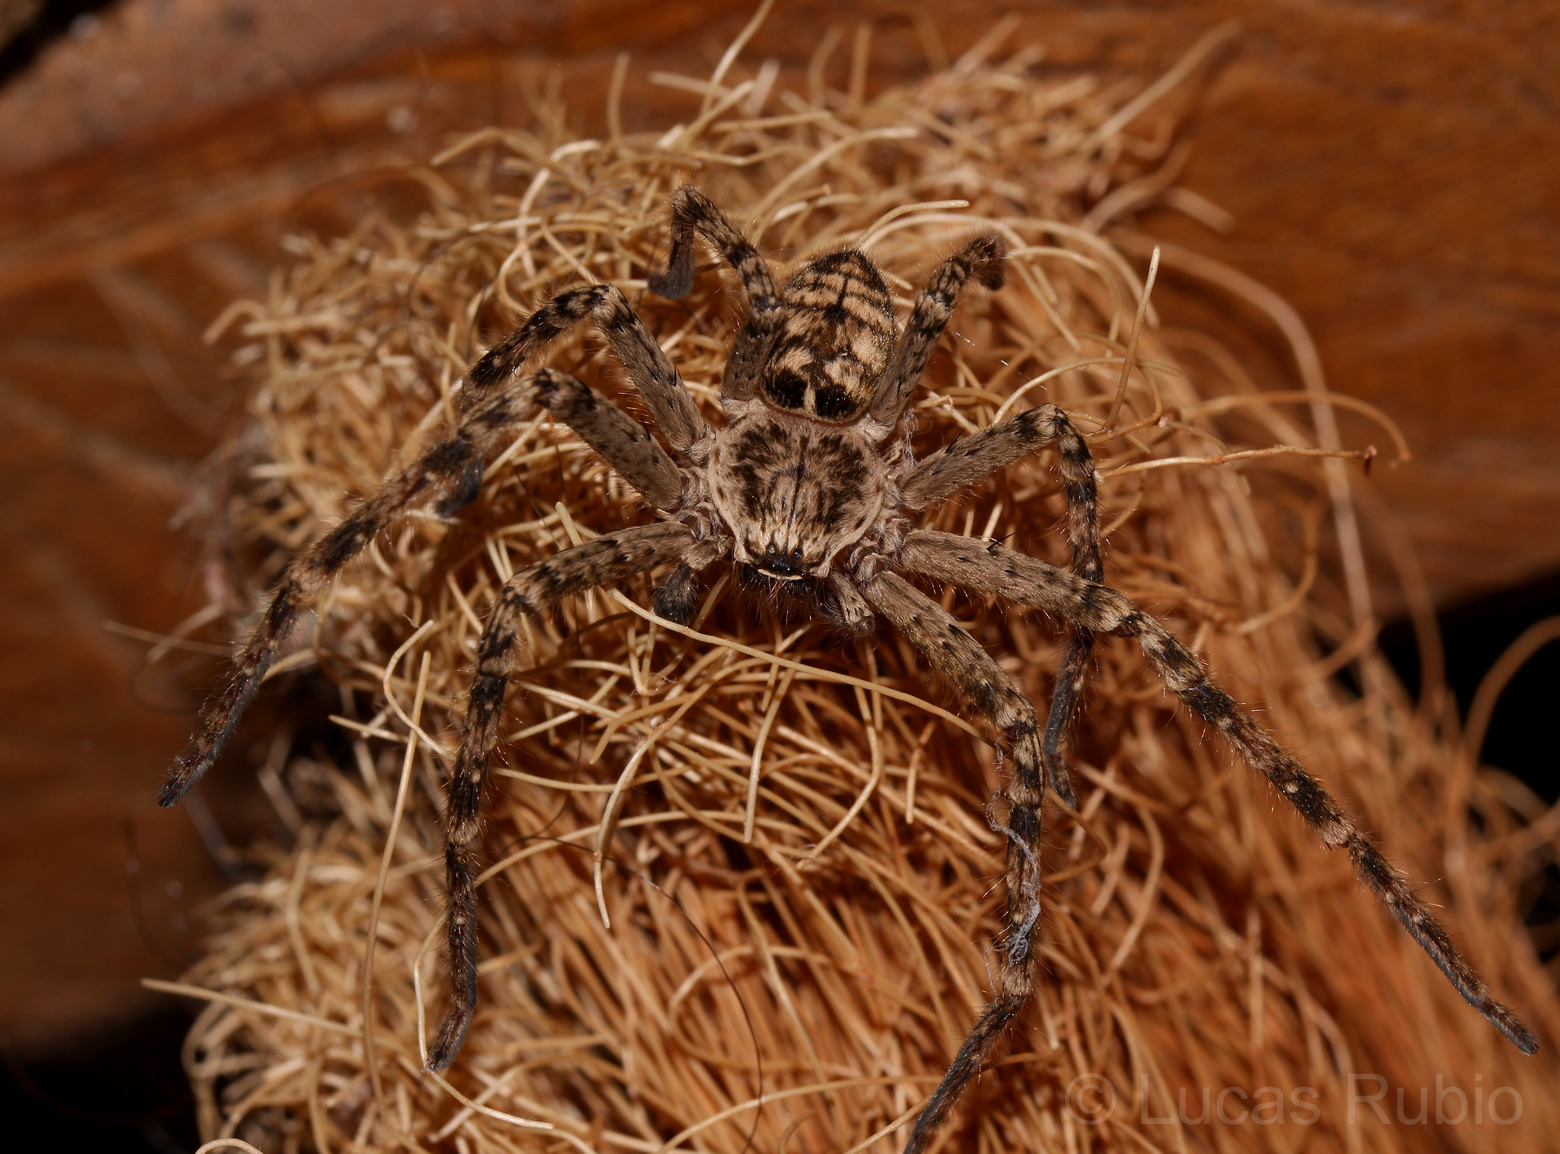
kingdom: Animalia
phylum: Arthropoda
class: Arachnida
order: Araneae
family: Sparassidae
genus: Polybetes
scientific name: Polybetes rapidus
